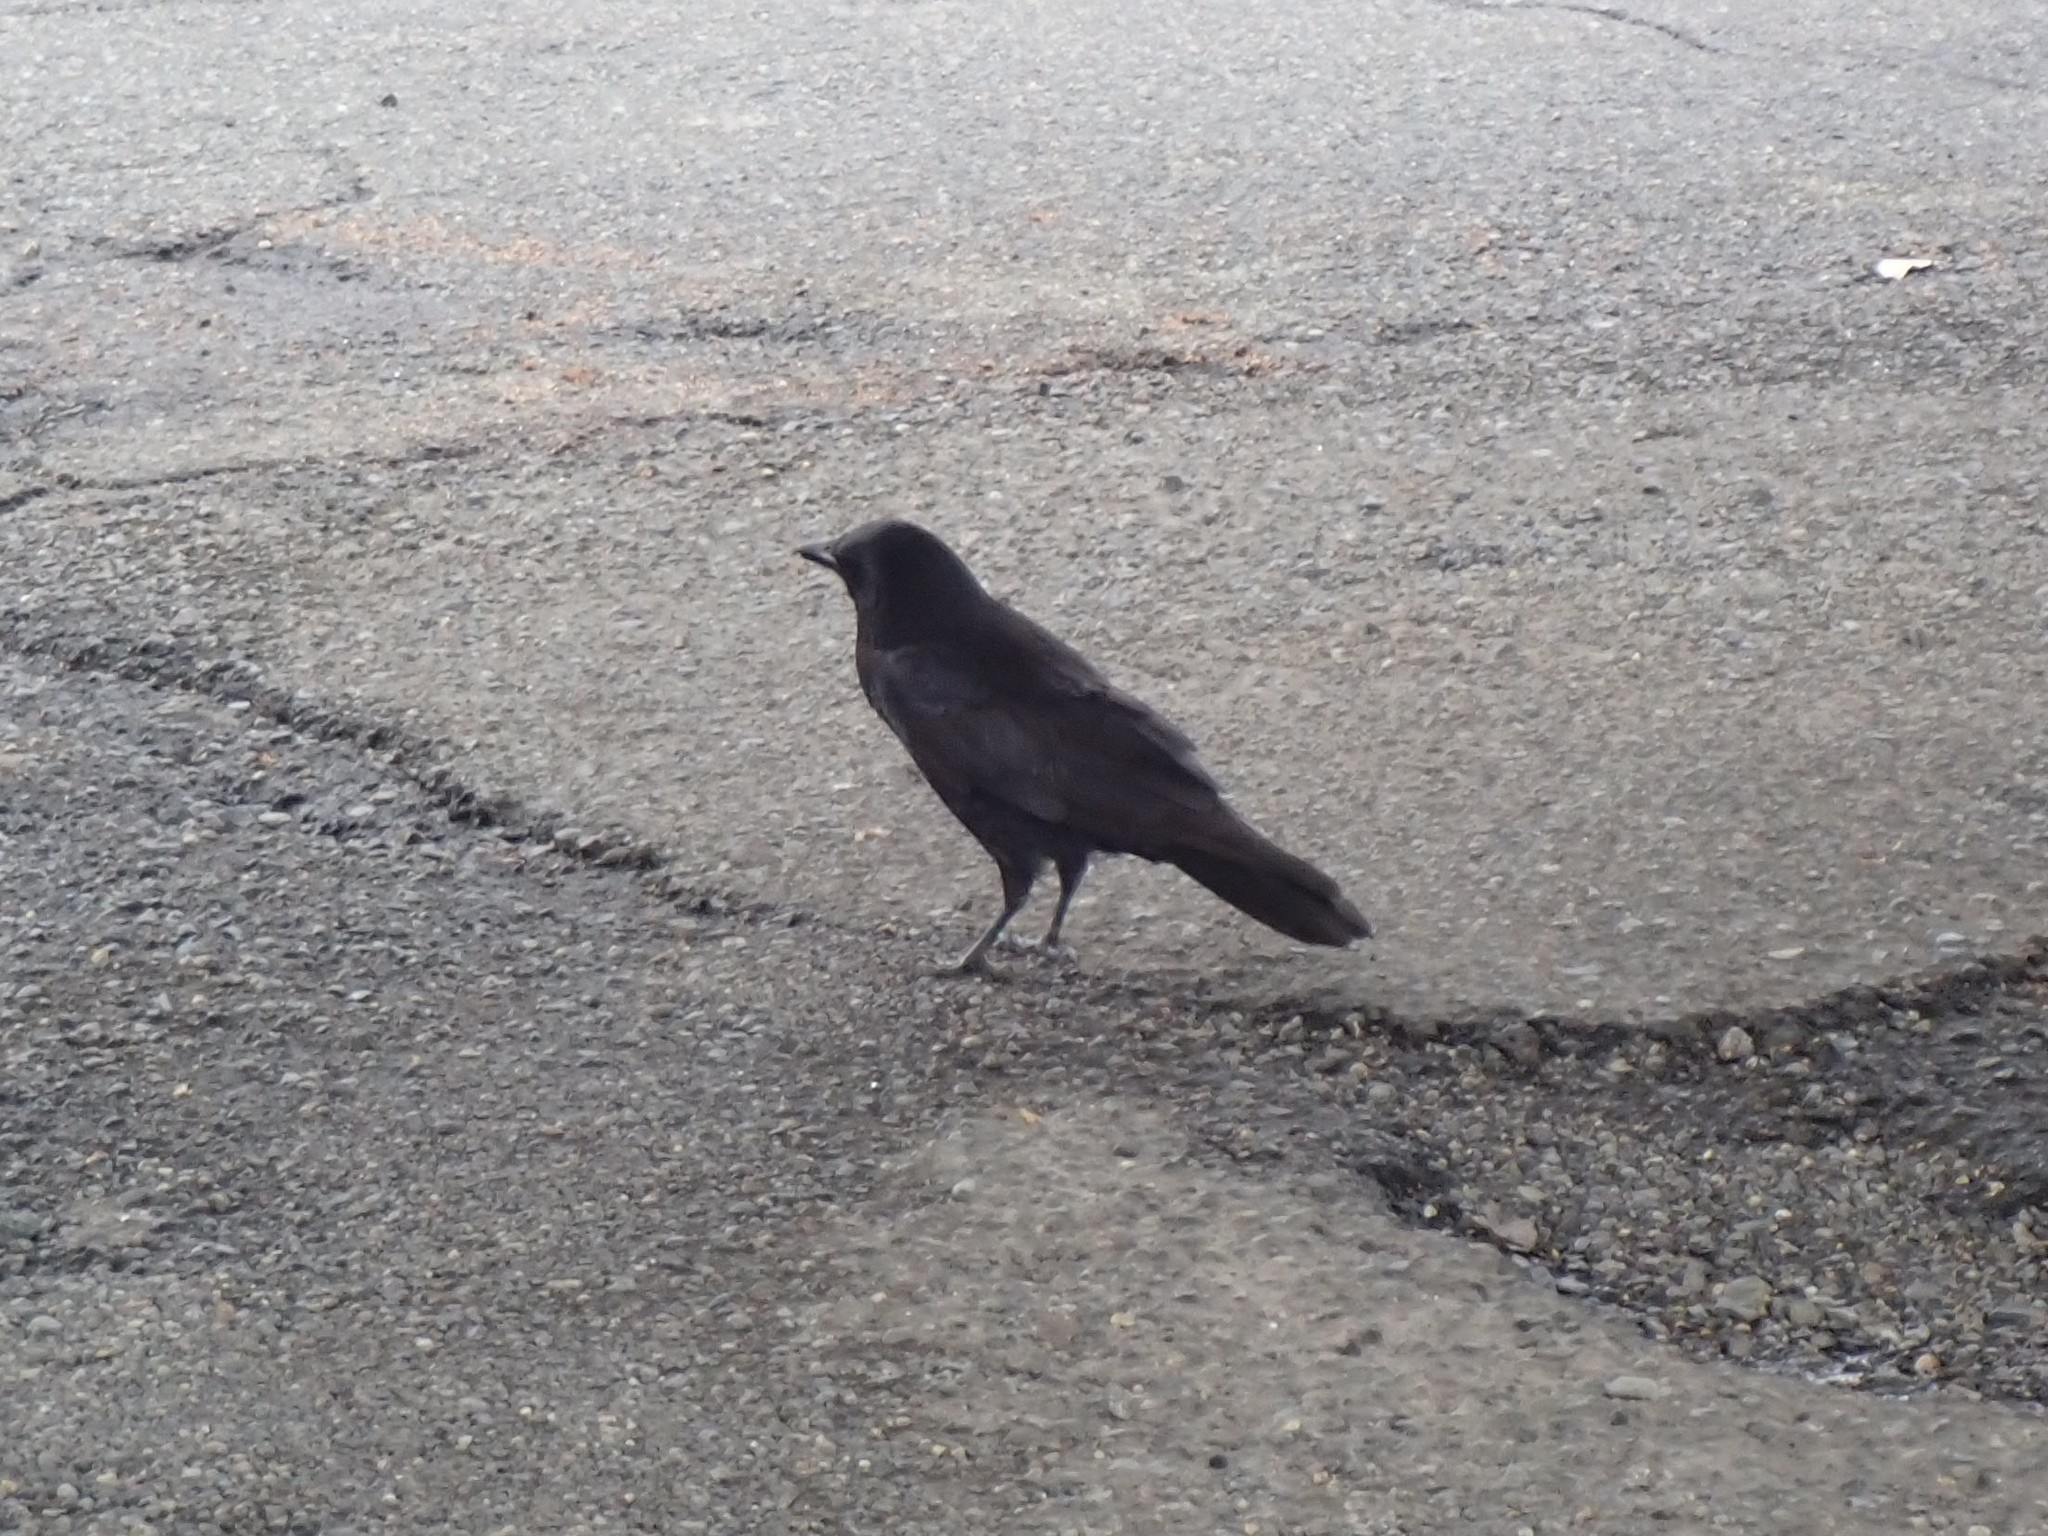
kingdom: Animalia
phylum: Chordata
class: Aves
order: Passeriformes
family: Corvidae
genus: Corvus
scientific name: Corvus brachyrhynchos
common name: American crow
